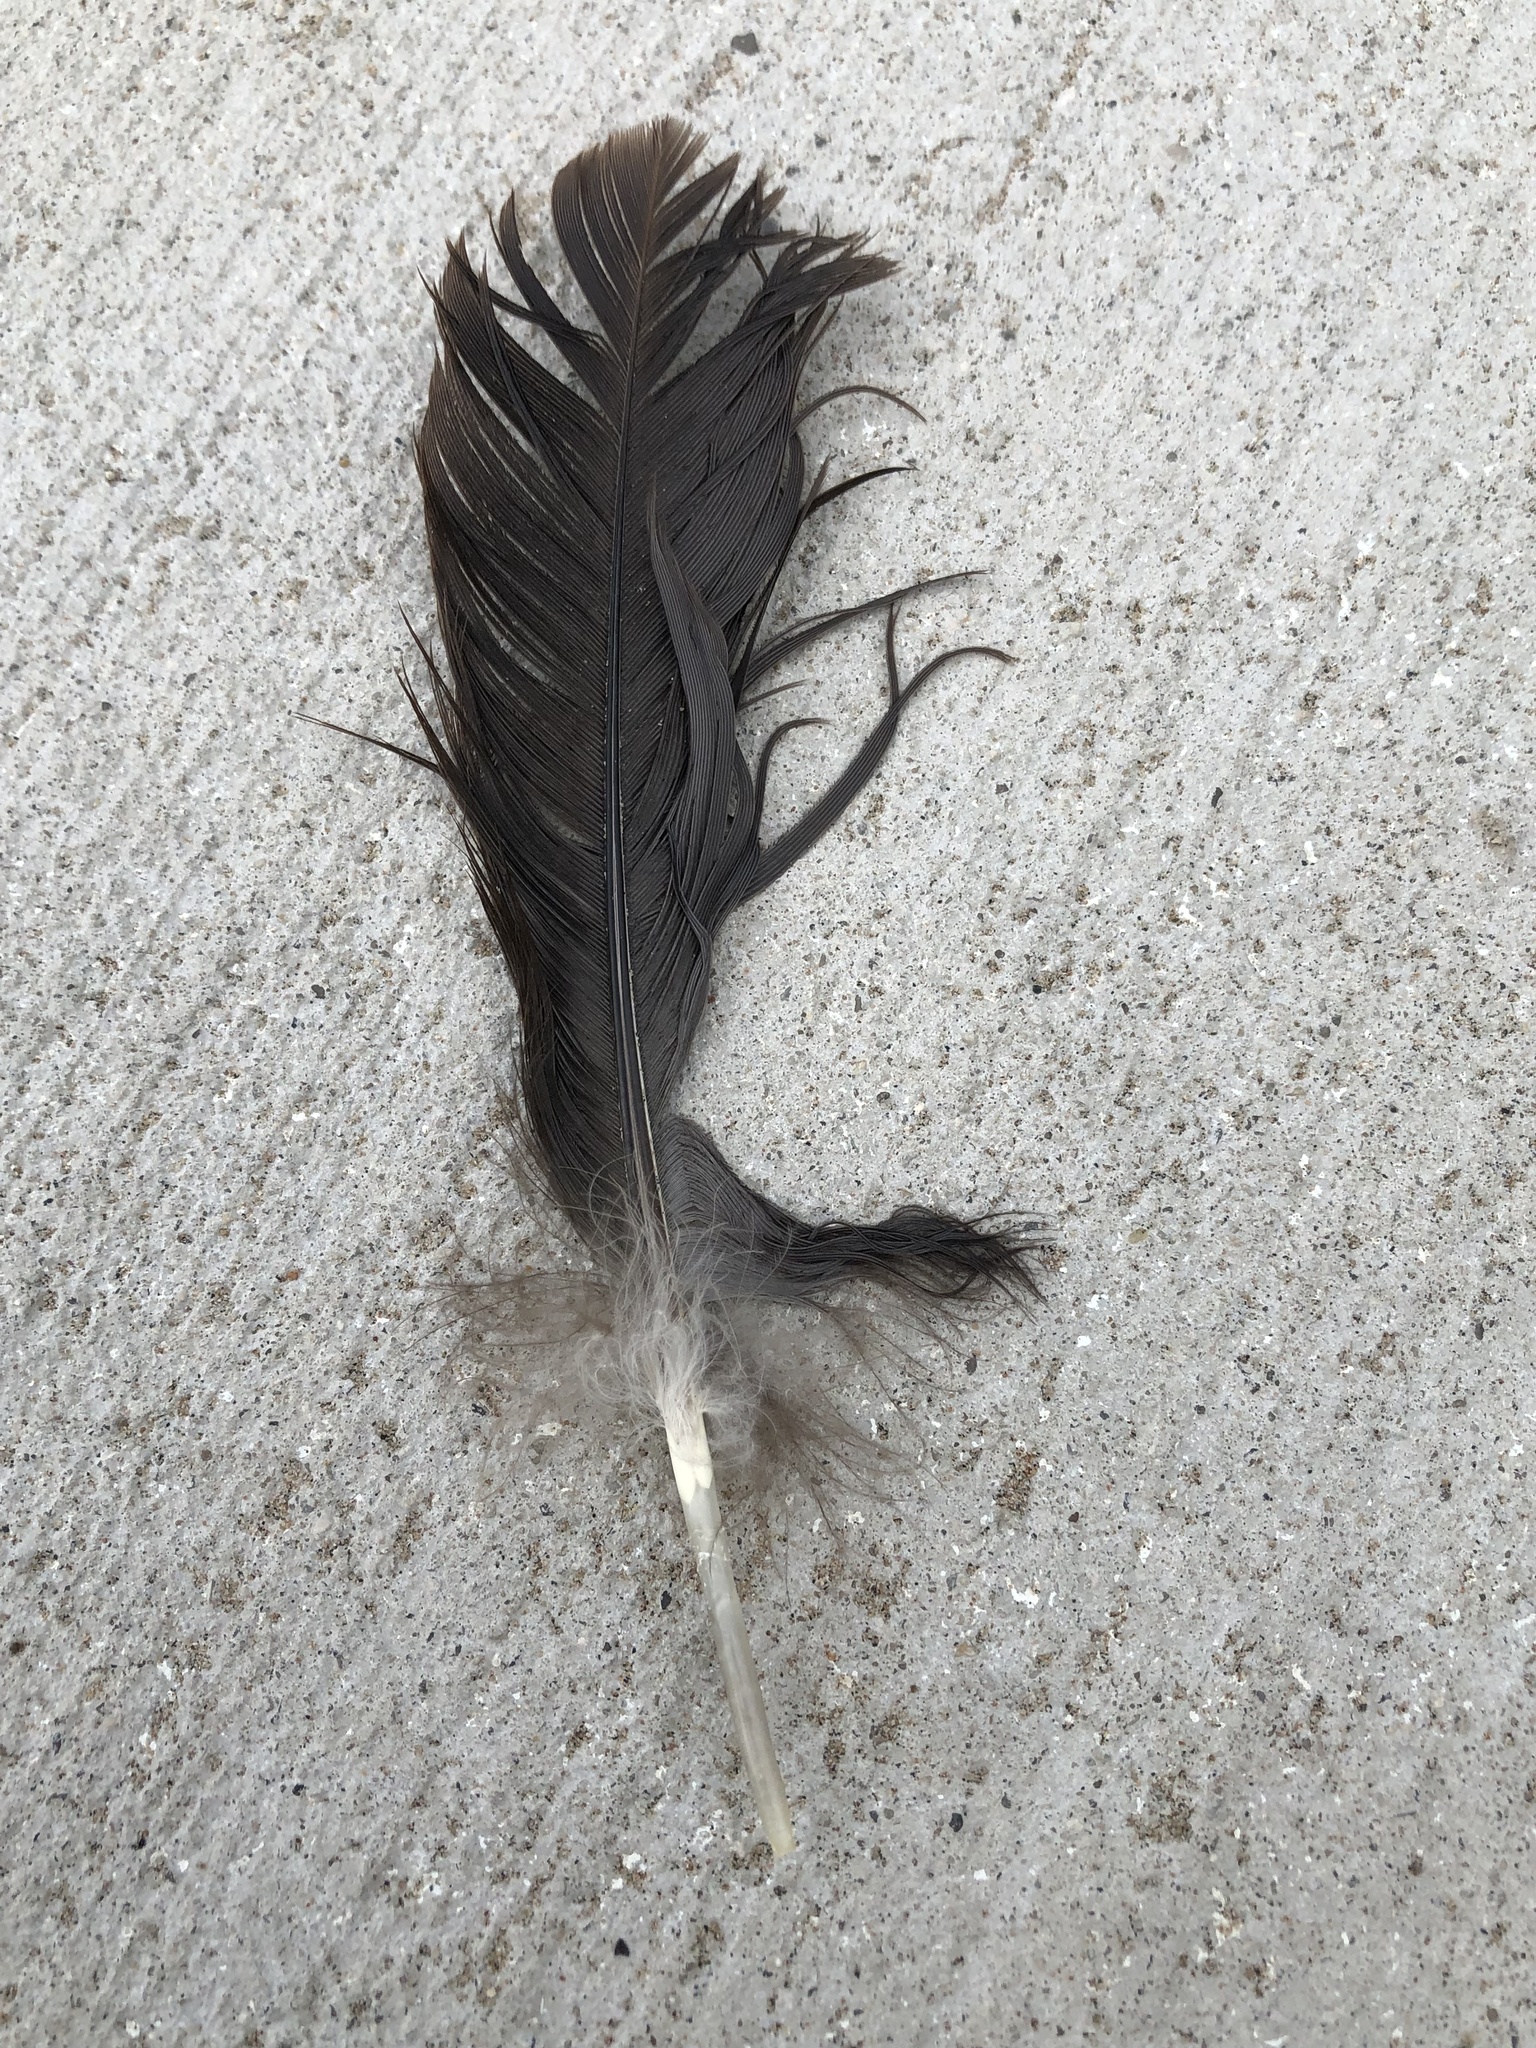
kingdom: Animalia
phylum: Chordata
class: Aves
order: Anseriformes
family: Anatidae
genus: Branta
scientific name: Branta canadensis
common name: Canada goose
